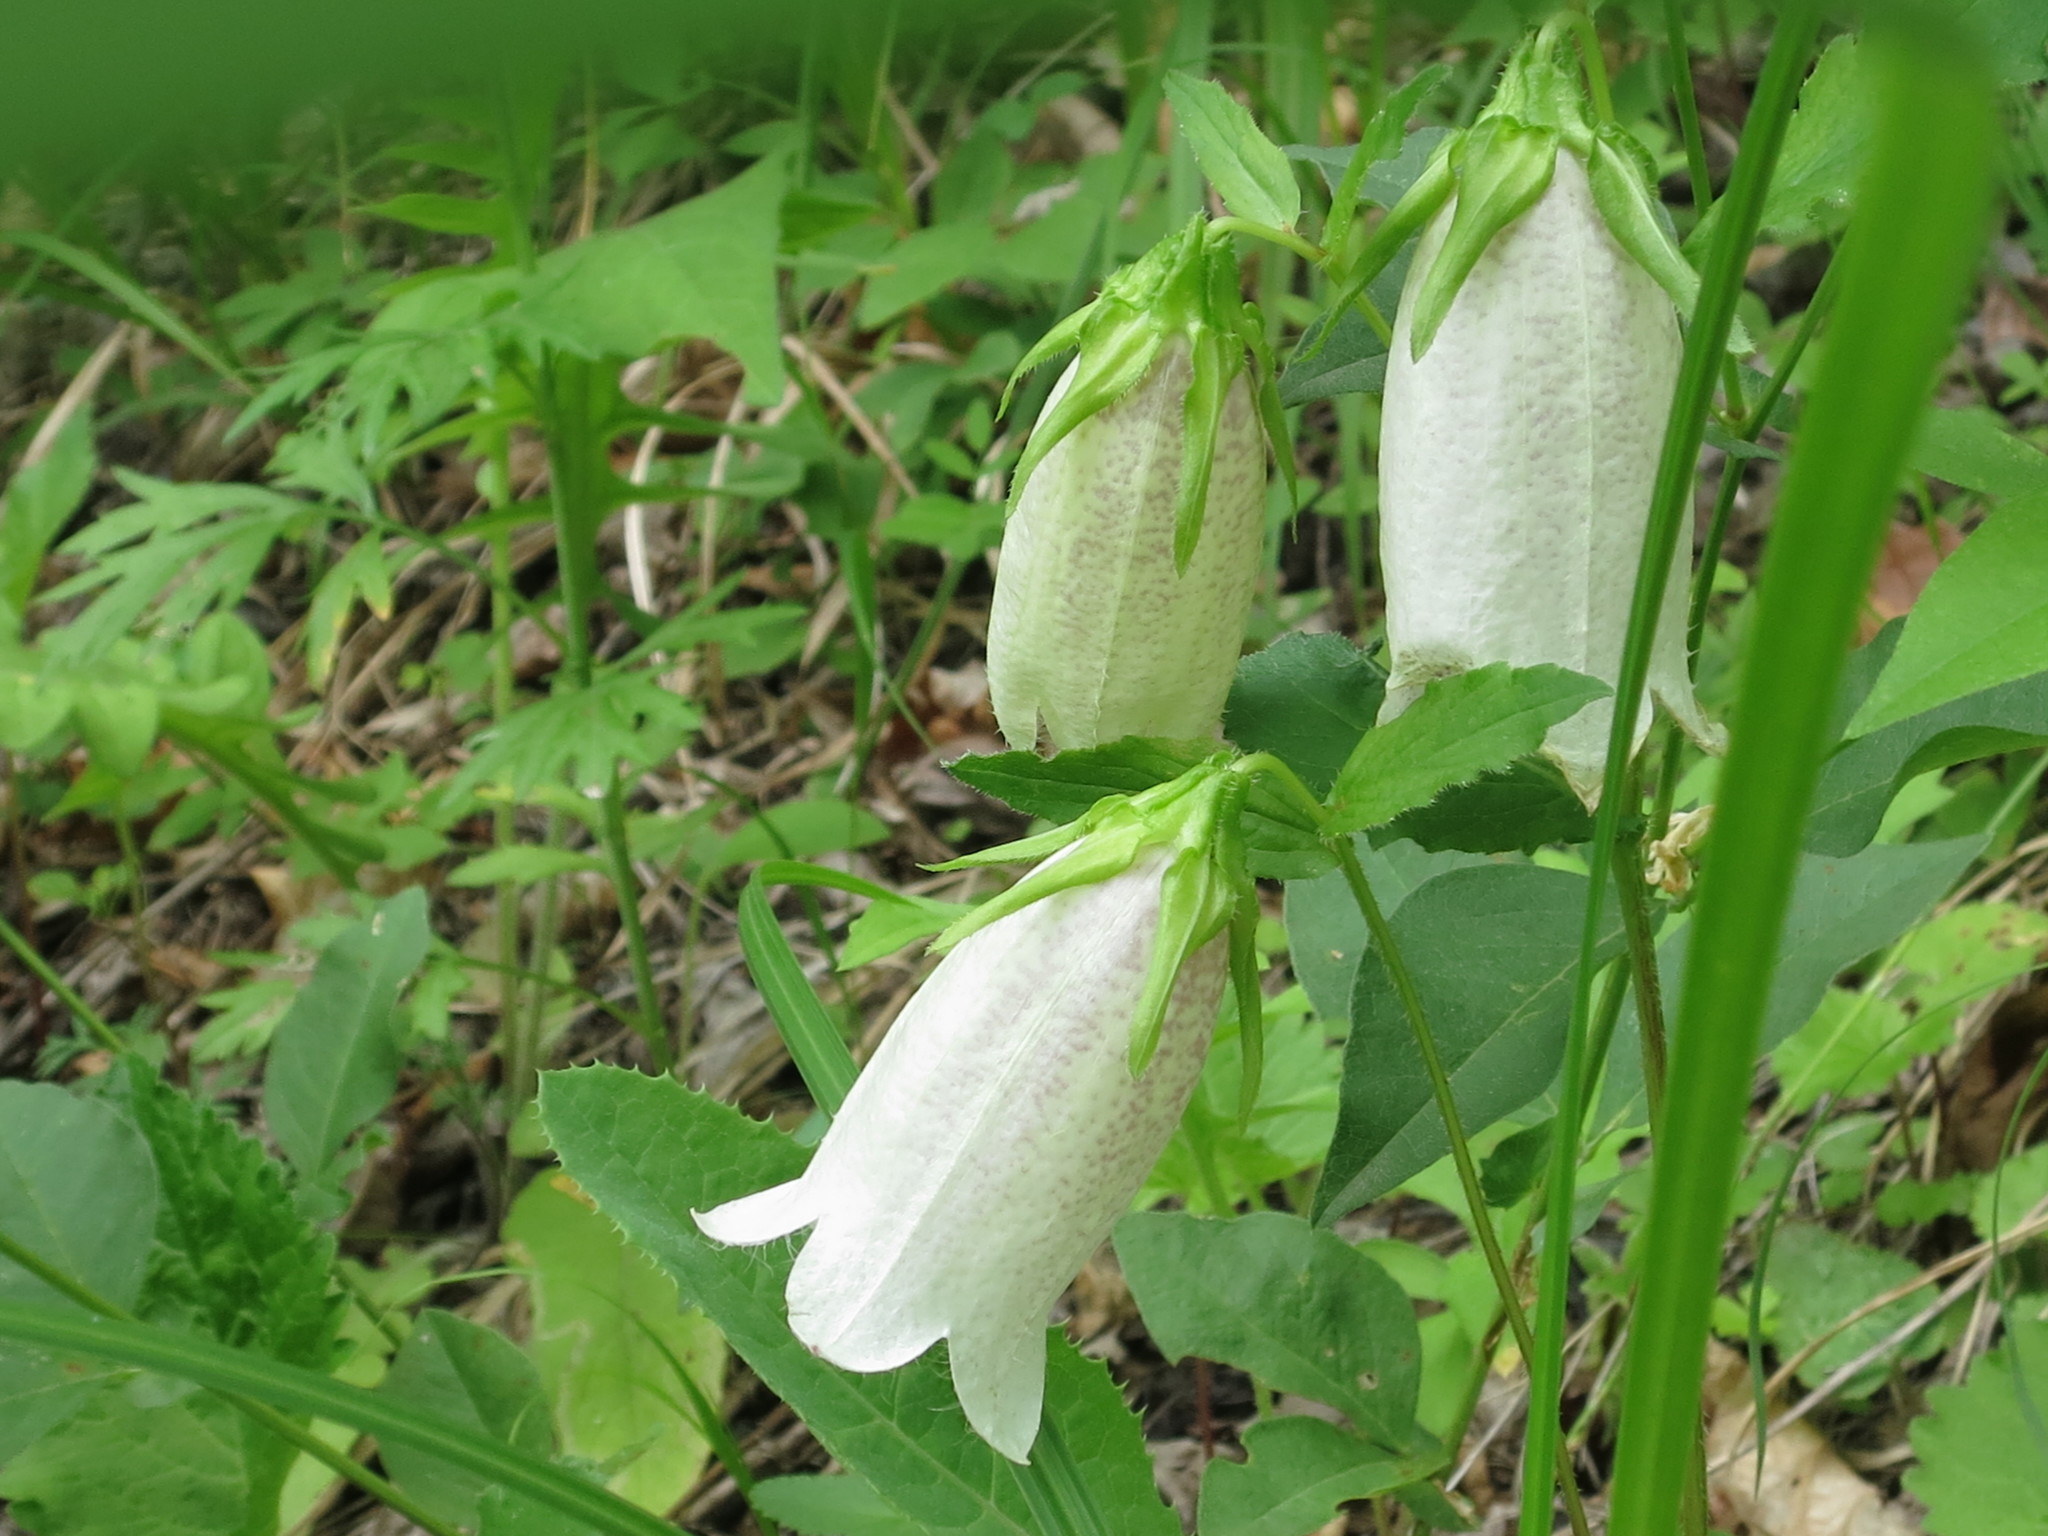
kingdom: Plantae
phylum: Tracheophyta
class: Magnoliopsida
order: Asterales
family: Campanulaceae
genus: Campanula
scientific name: Campanula punctata
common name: Spotted bellflower
